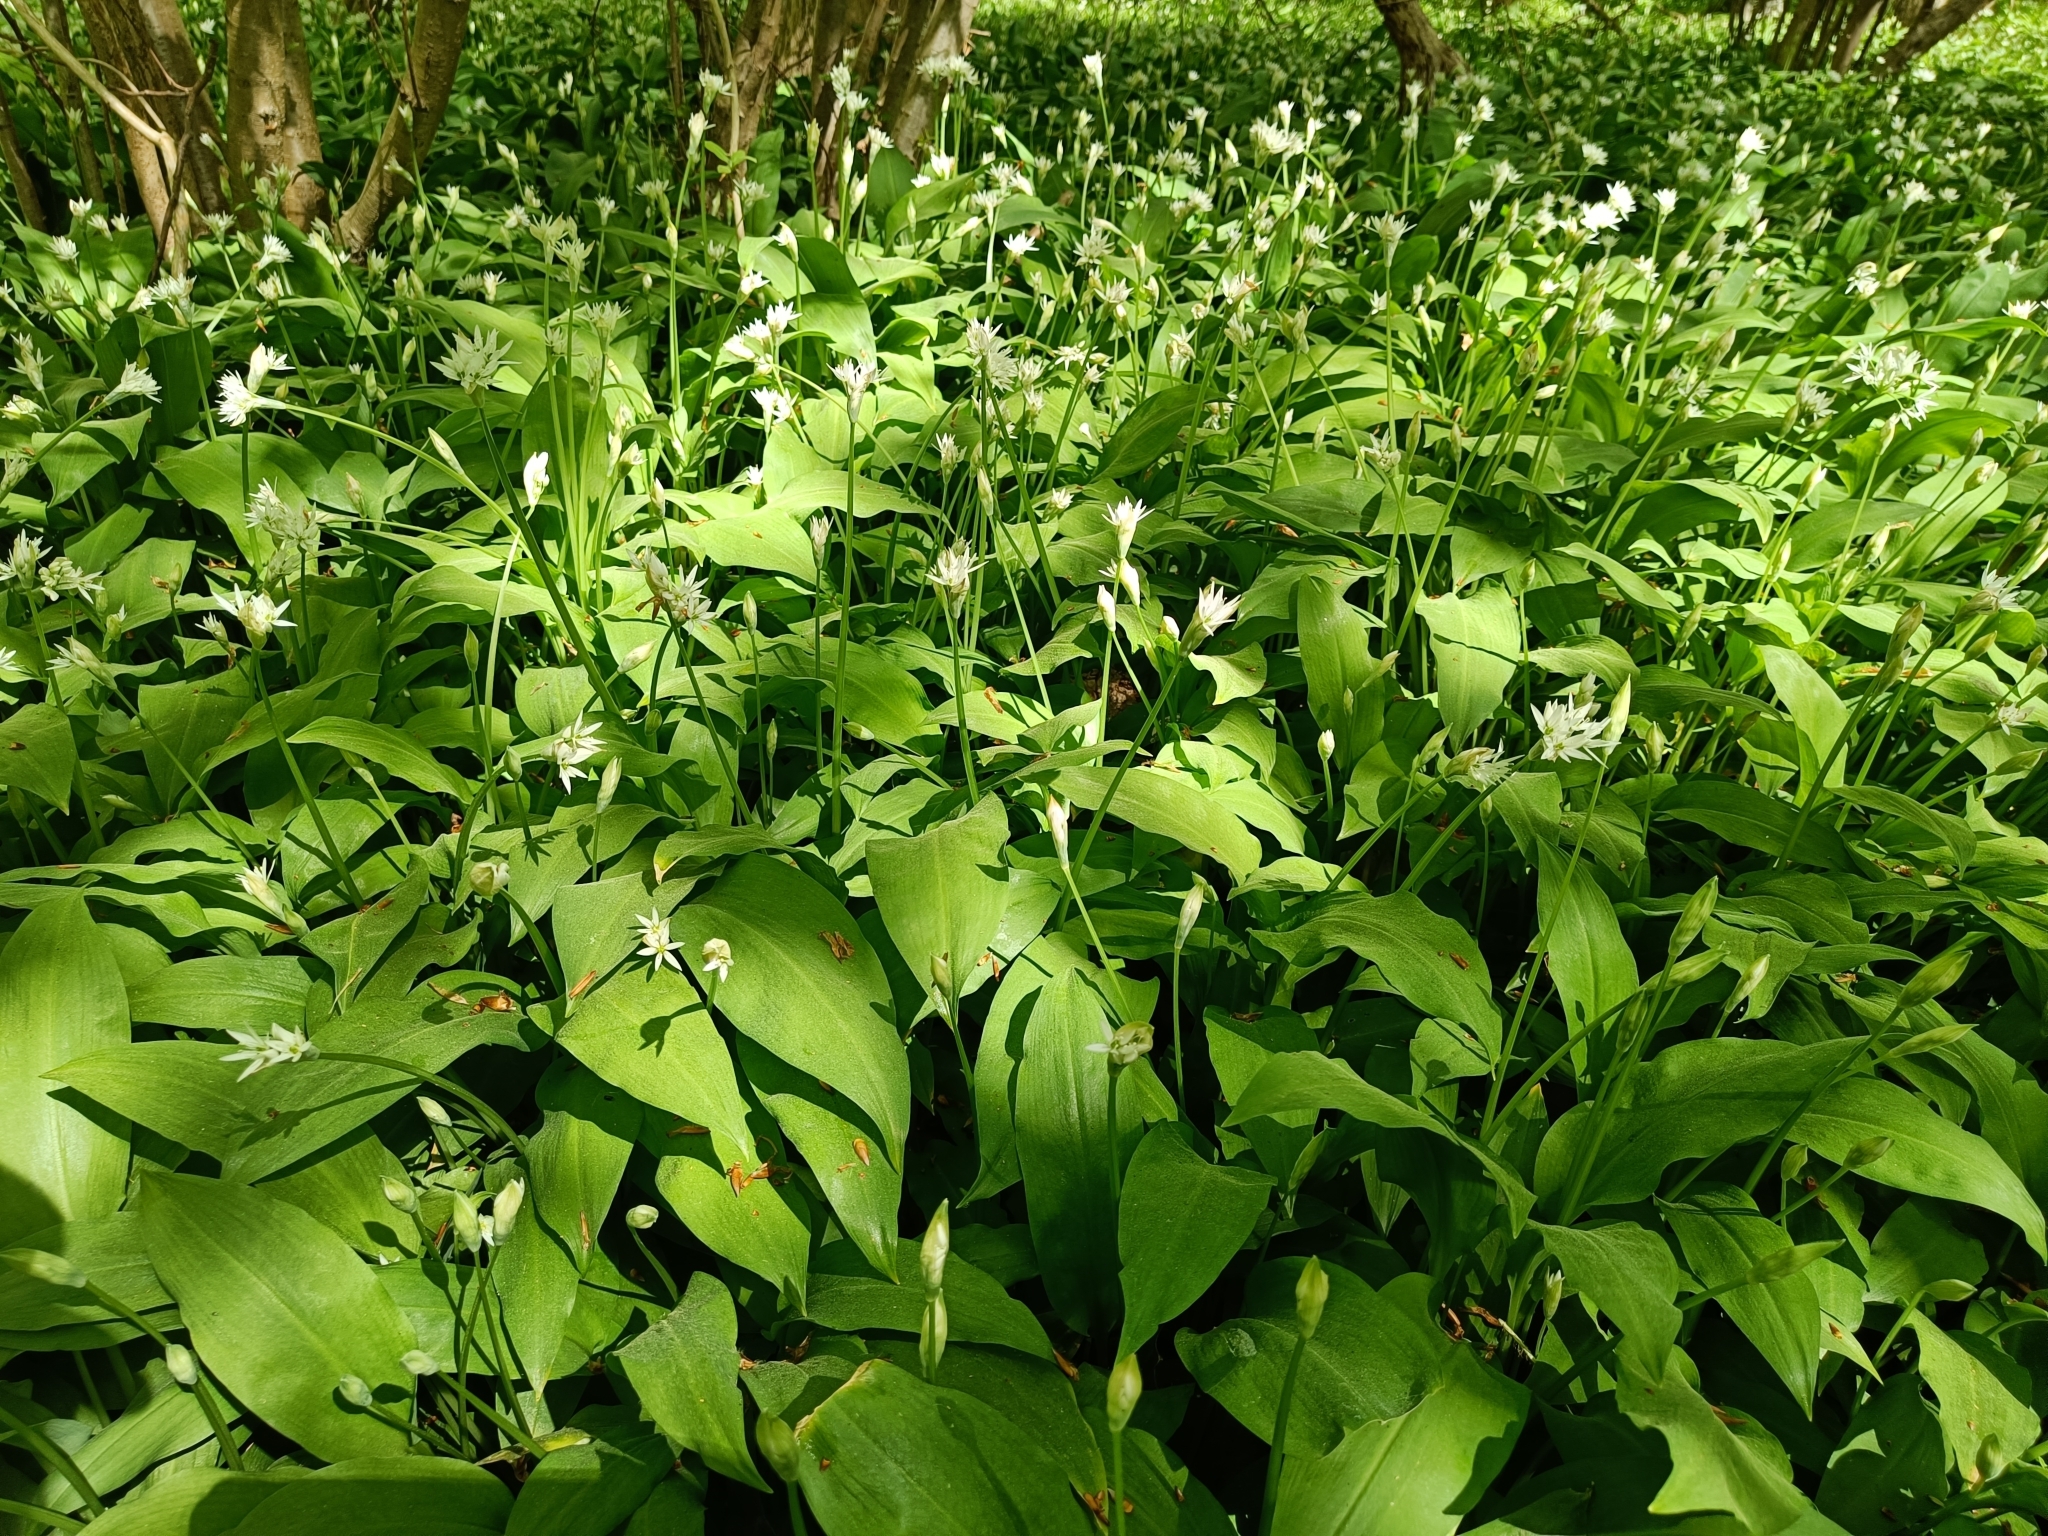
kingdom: Plantae
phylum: Tracheophyta
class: Liliopsida
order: Asparagales
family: Amaryllidaceae
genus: Allium
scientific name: Allium ursinum
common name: Ramsons
